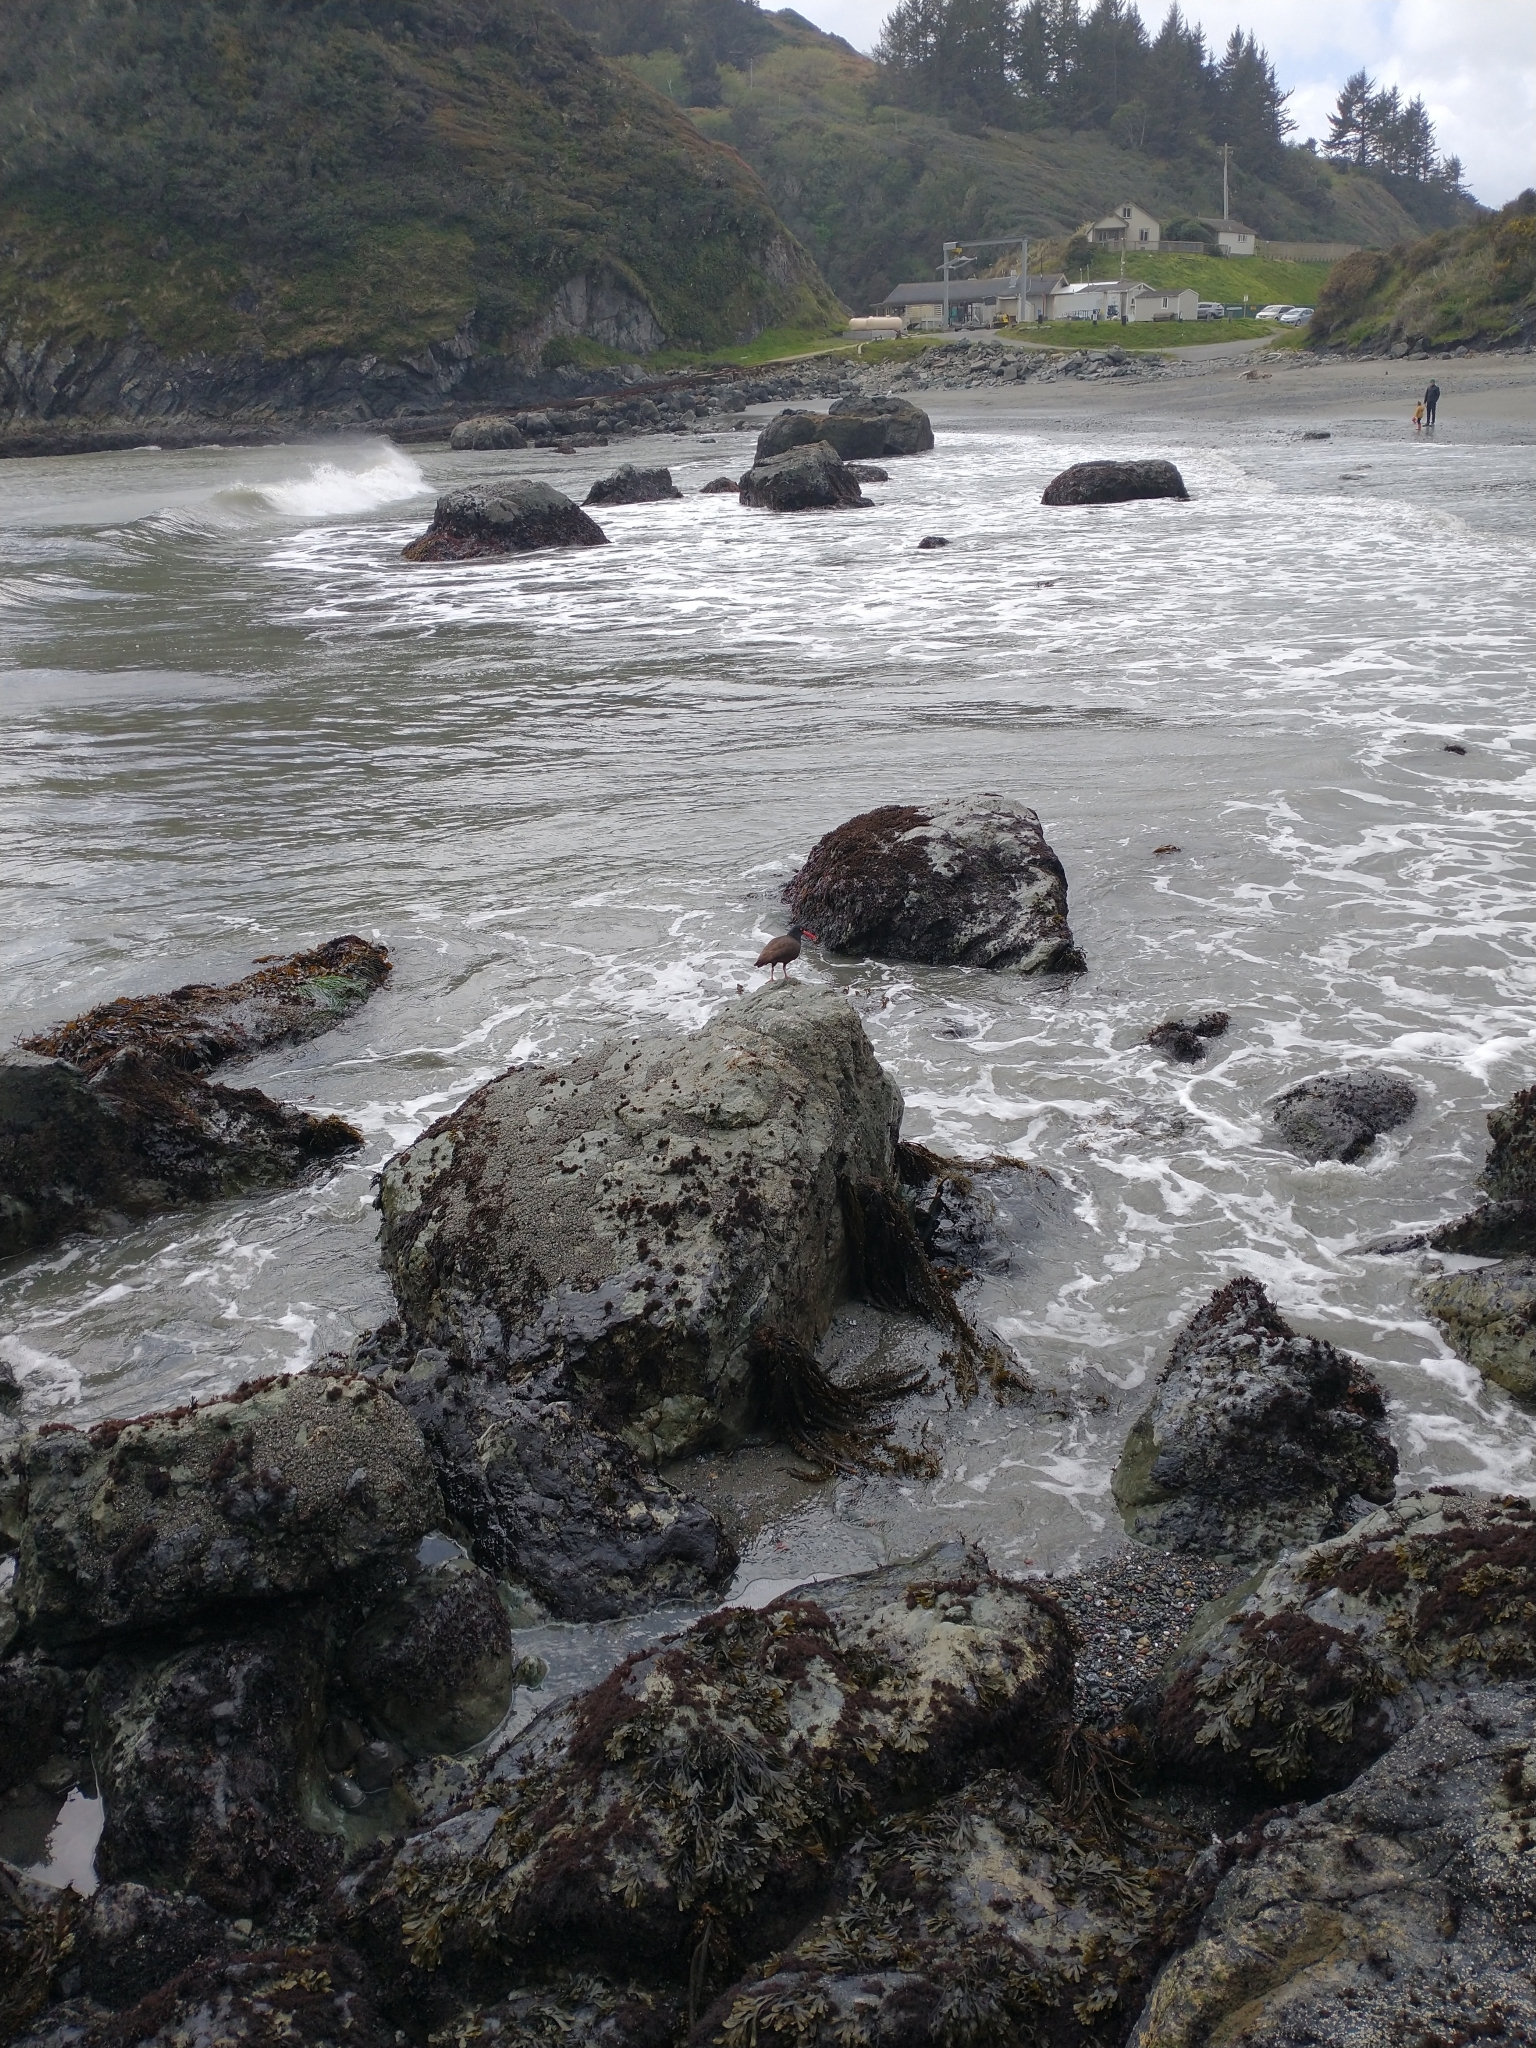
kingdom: Animalia
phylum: Chordata
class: Aves
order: Charadriiformes
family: Haematopodidae
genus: Haematopus
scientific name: Haematopus bachmani
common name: Black oystercatcher
